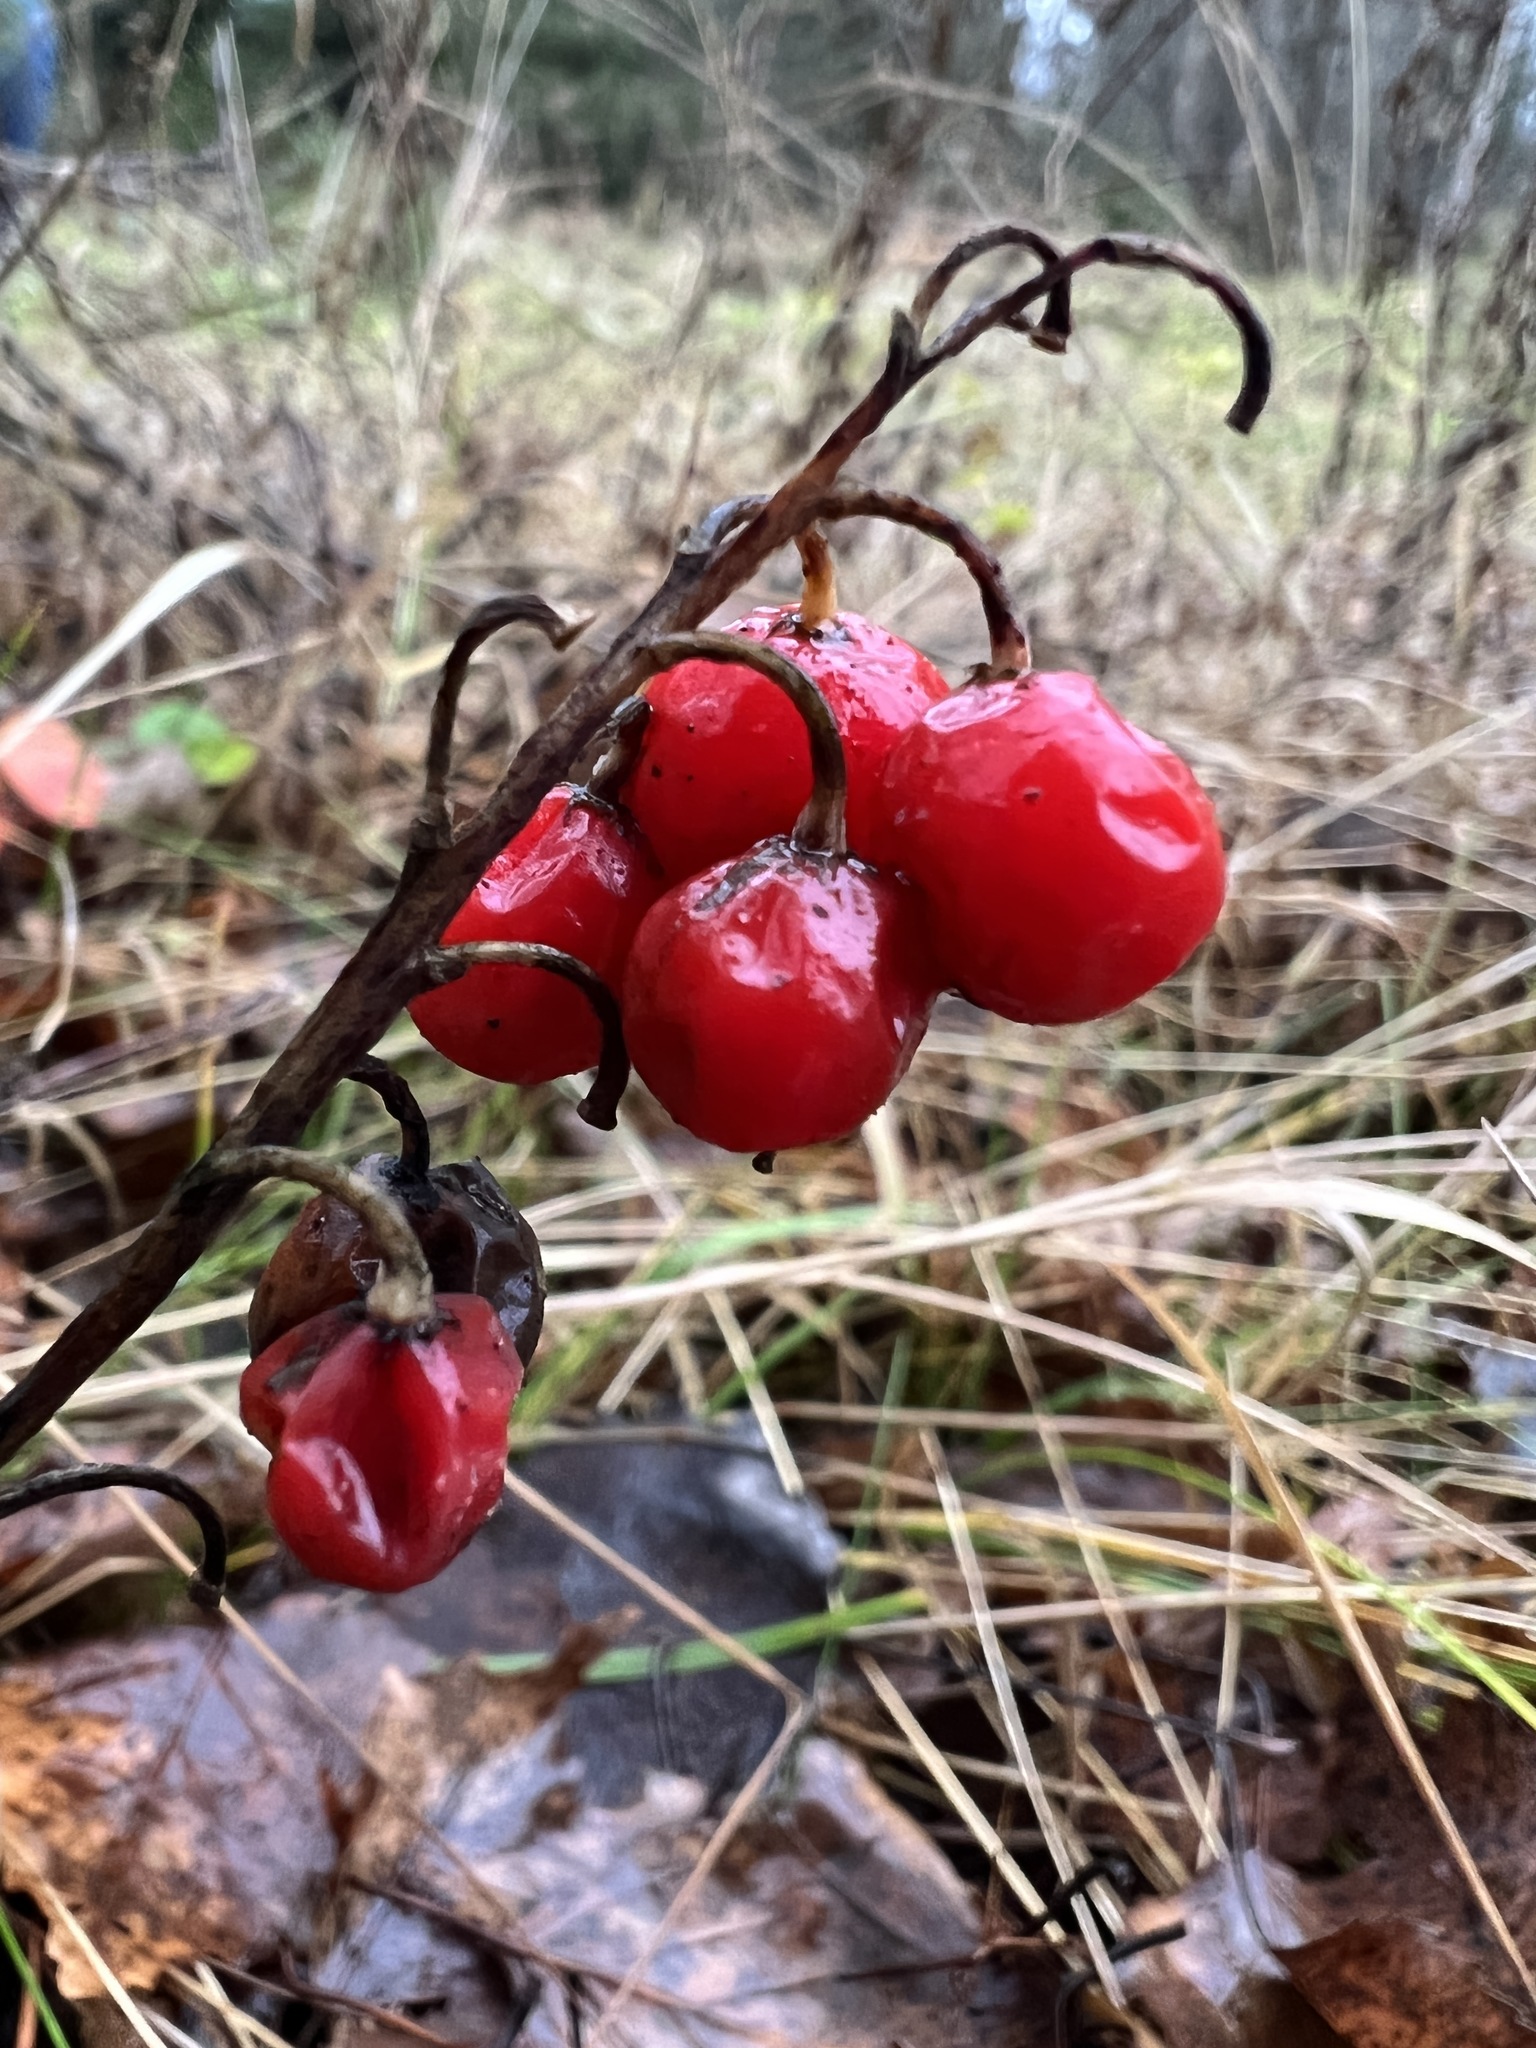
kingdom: Plantae
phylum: Tracheophyta
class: Liliopsida
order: Asparagales
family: Asparagaceae
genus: Convallaria
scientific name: Convallaria majalis
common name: Lily-of-the-valley
